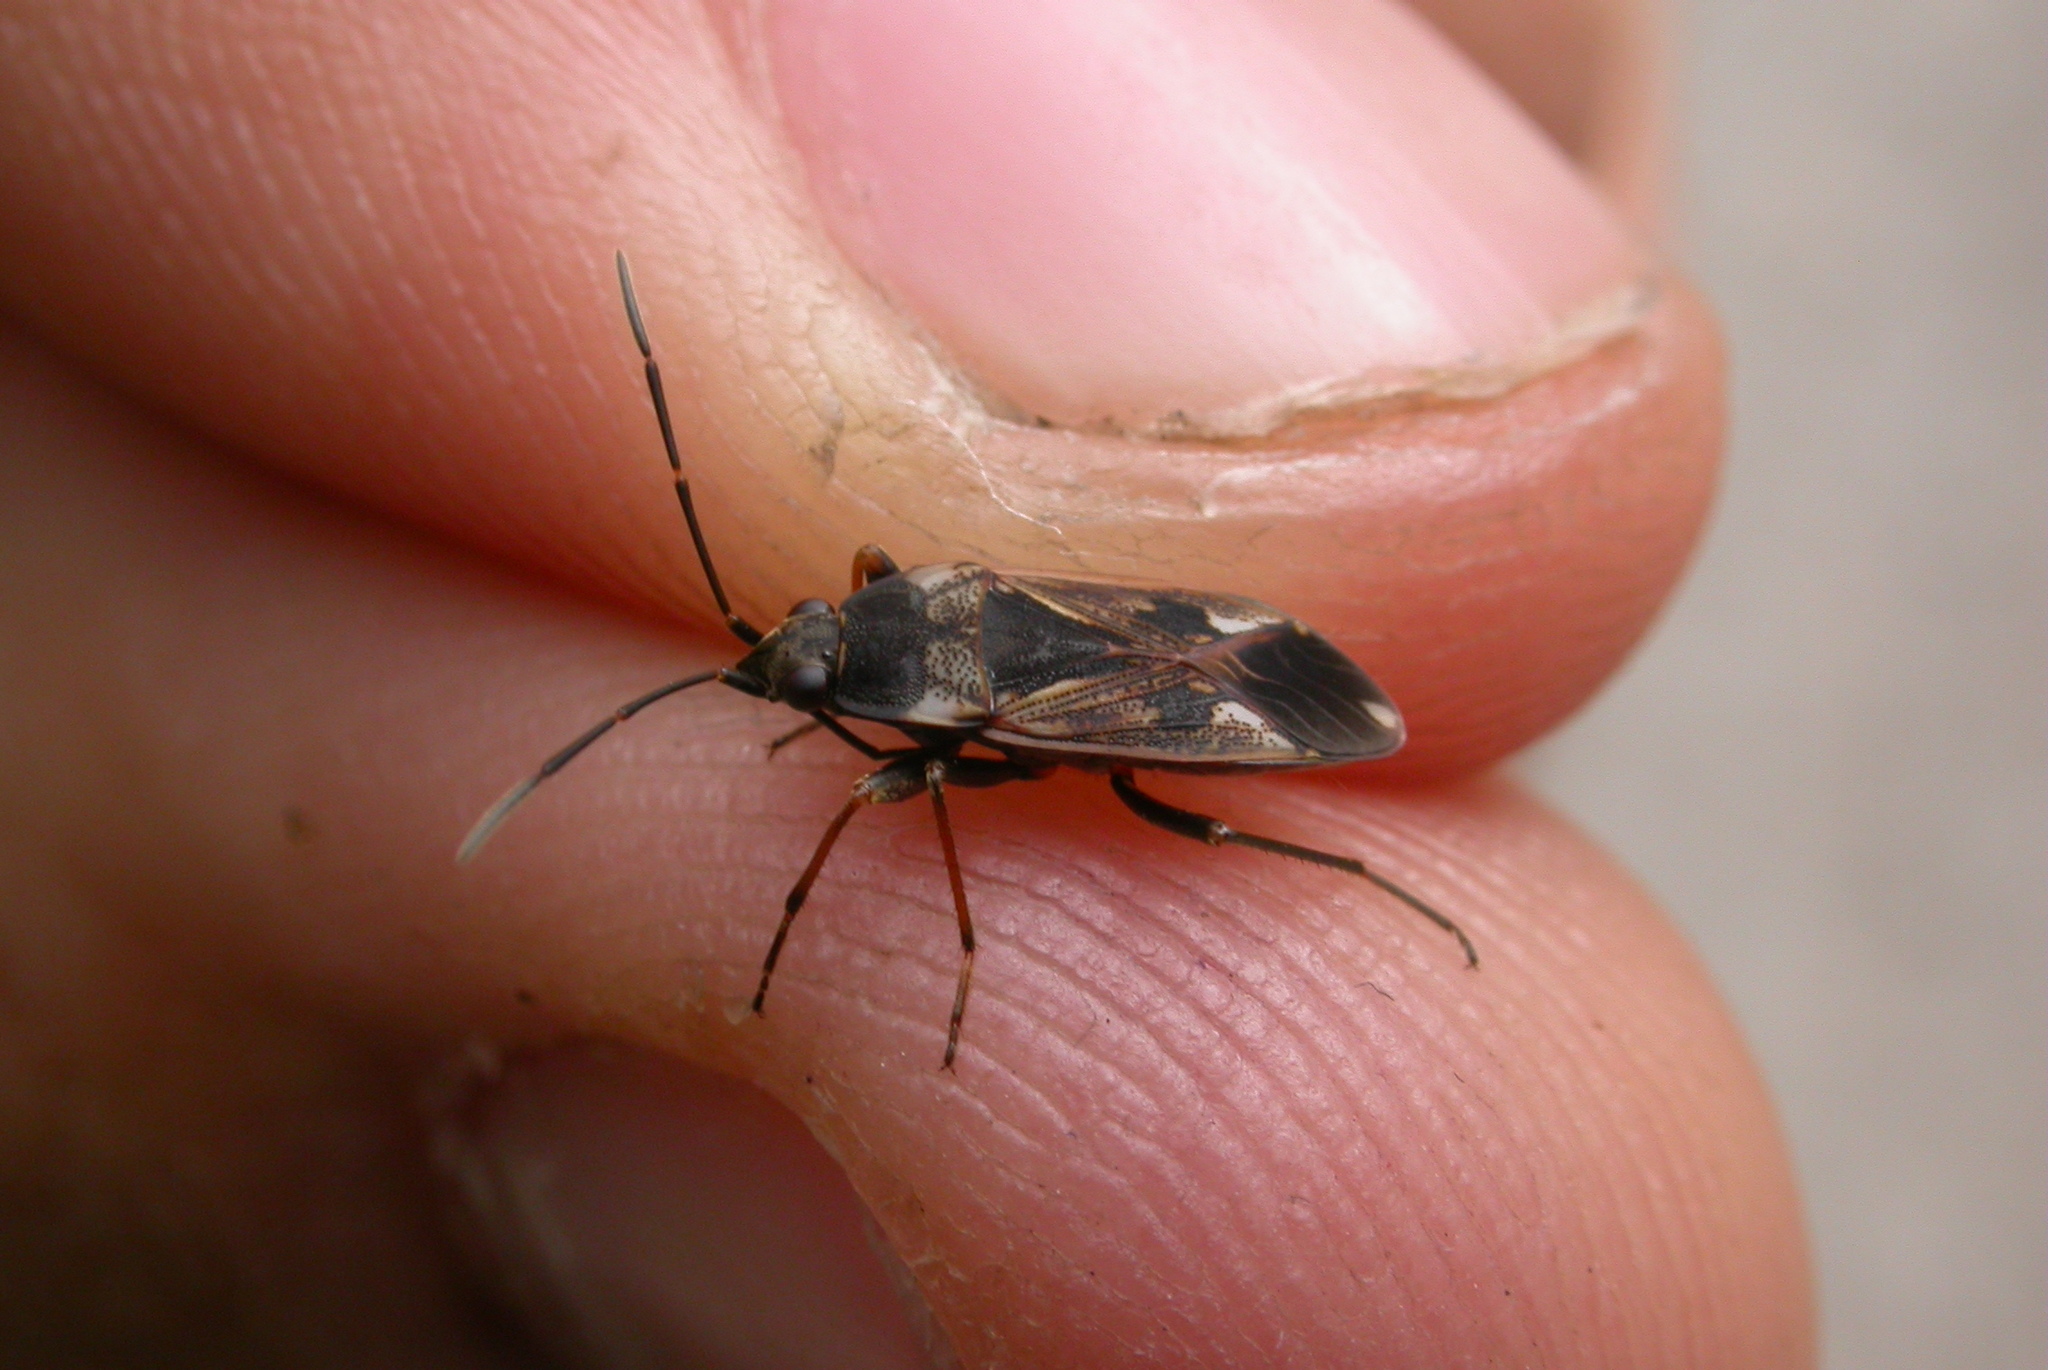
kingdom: Animalia
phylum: Arthropoda
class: Insecta
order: Hemiptera
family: Rhyparochromidae
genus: Rhyparochromus
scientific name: Rhyparochromus vulgaris
